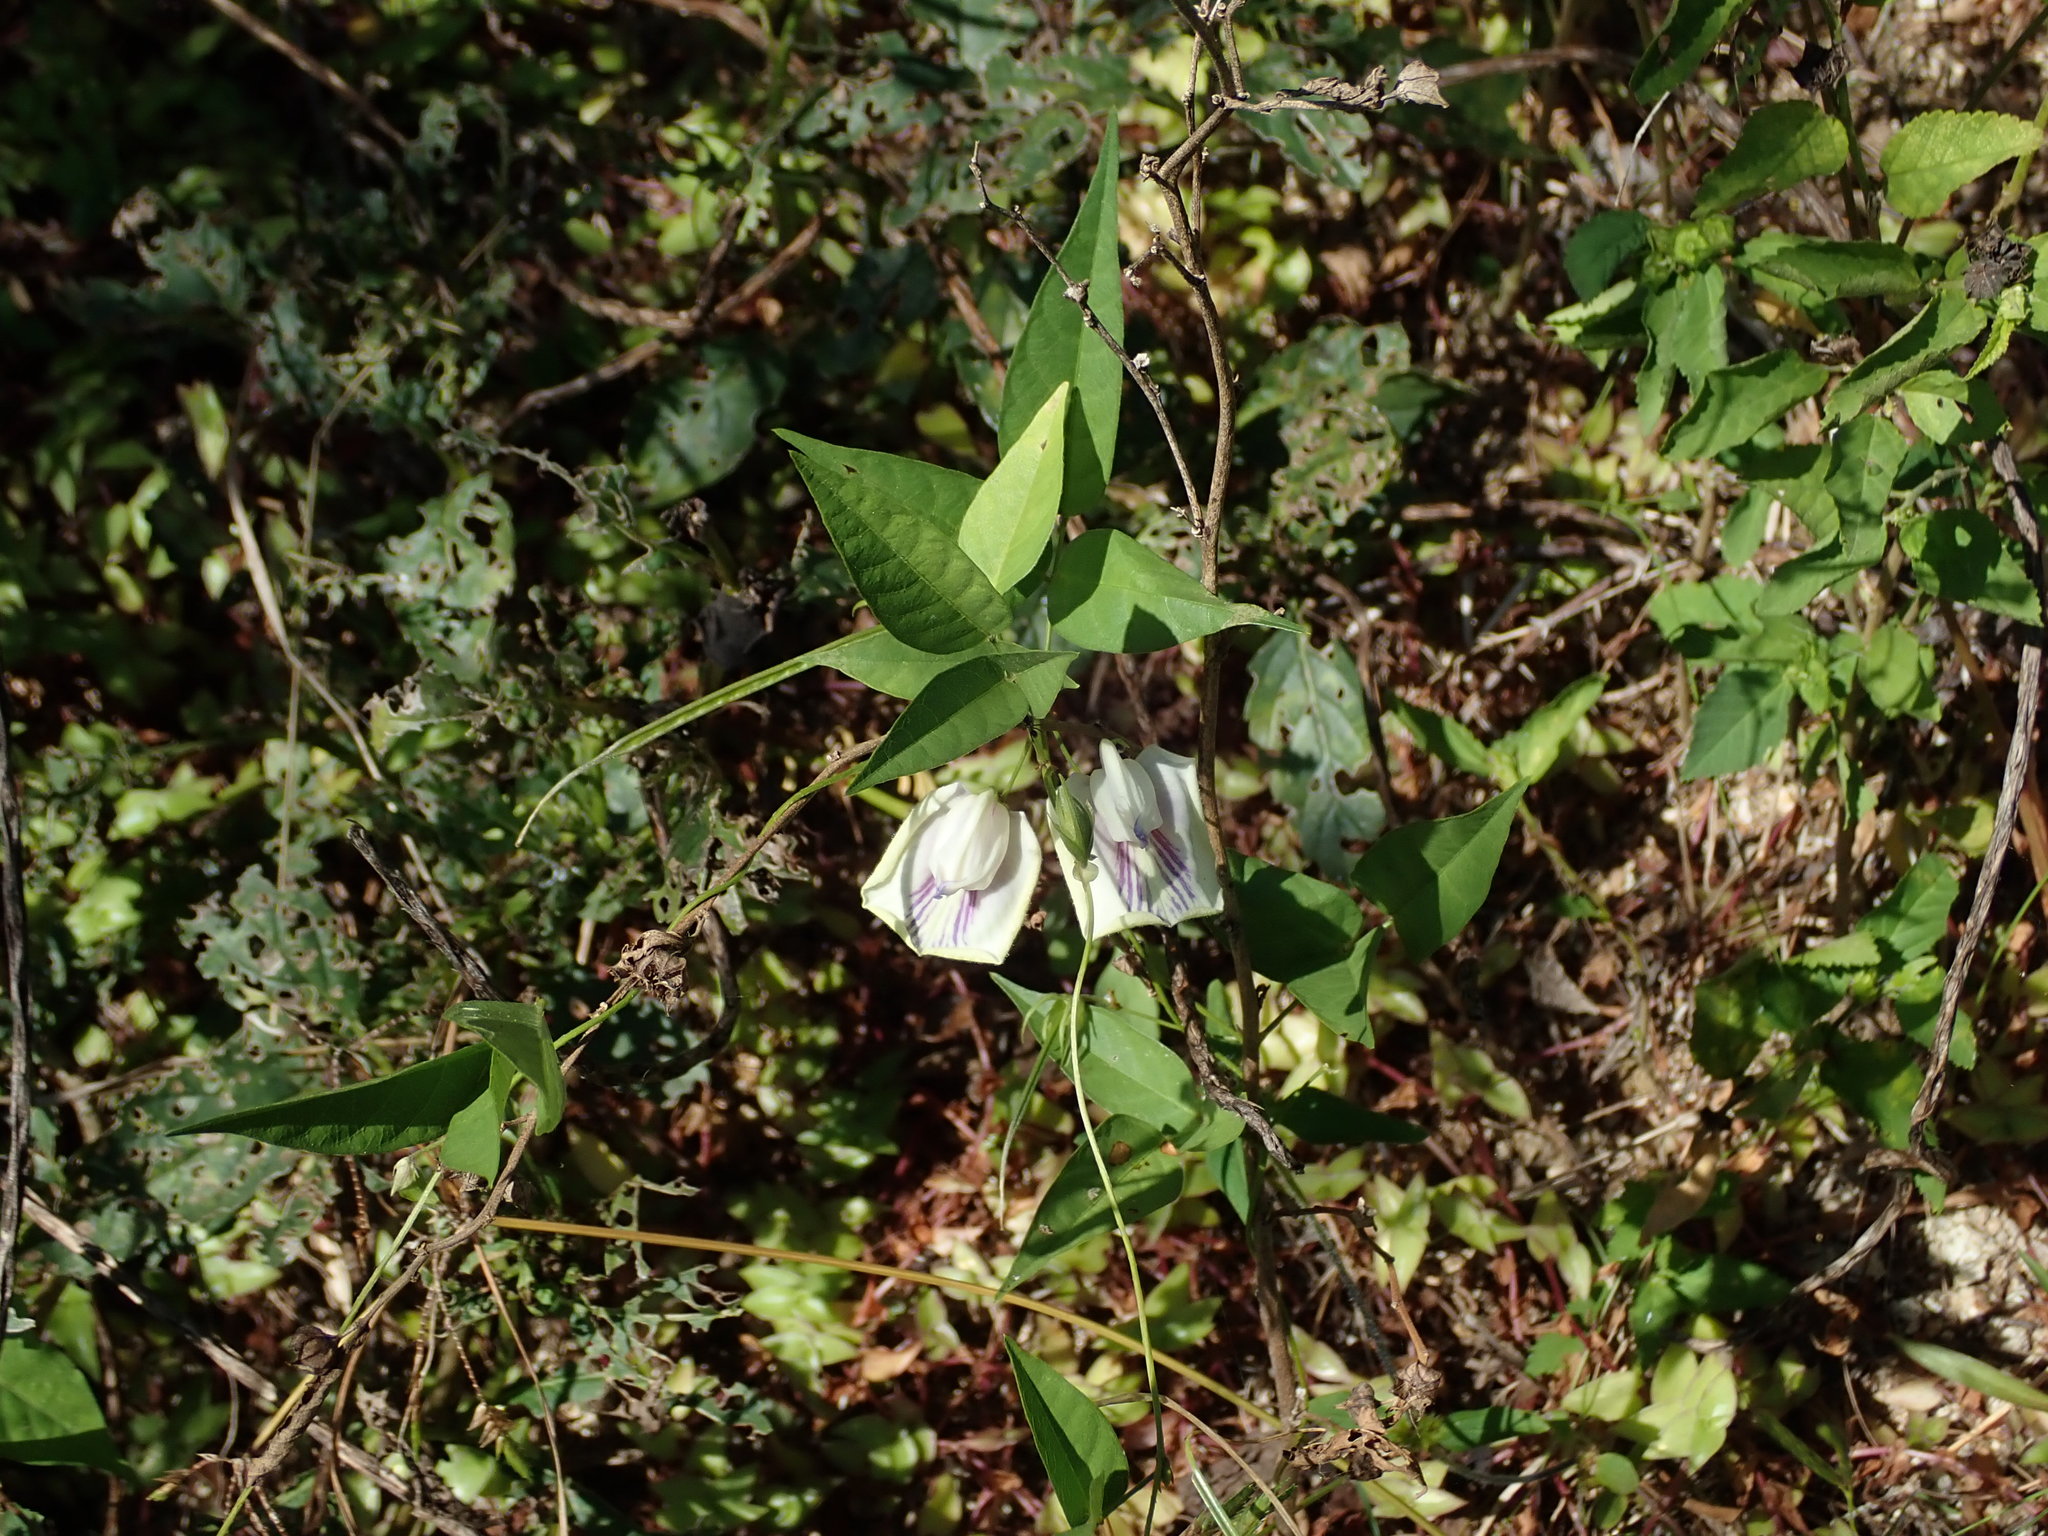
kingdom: Plantae
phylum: Tracheophyta
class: Magnoliopsida
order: Fabales
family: Fabaceae
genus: Centrosema
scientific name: Centrosema virginianum
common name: Butterfly-pea
